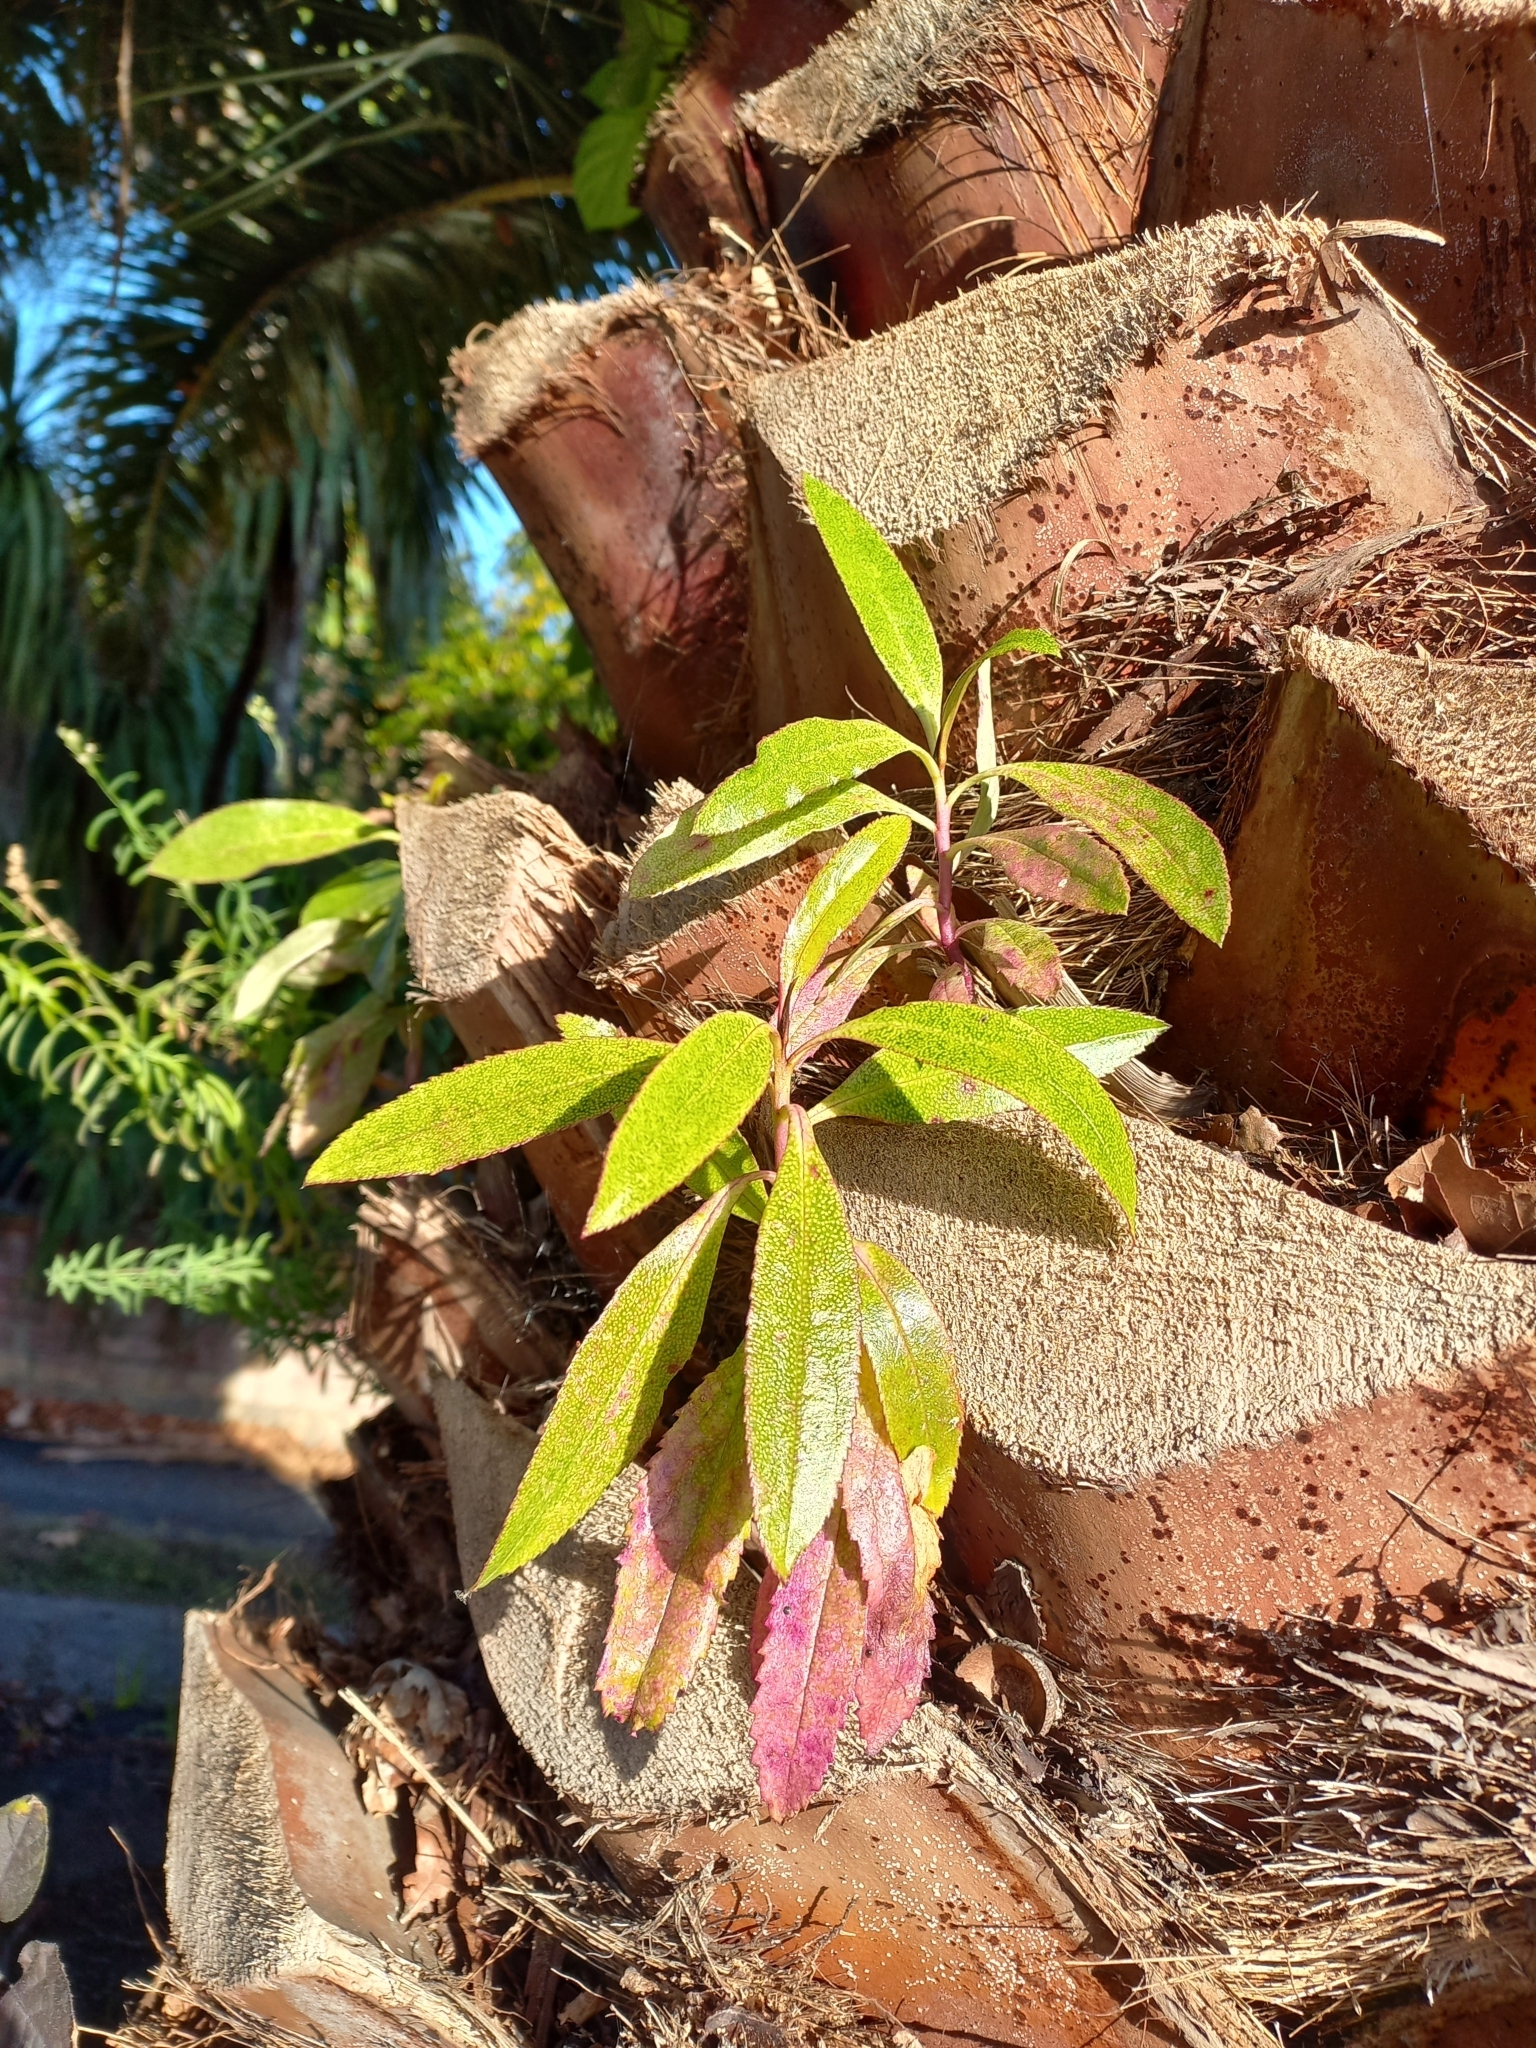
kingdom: Plantae
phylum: Tracheophyta
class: Magnoliopsida
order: Lamiales
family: Scrophulariaceae
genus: Myoporum
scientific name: Myoporum laetum
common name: Ngaio tree
